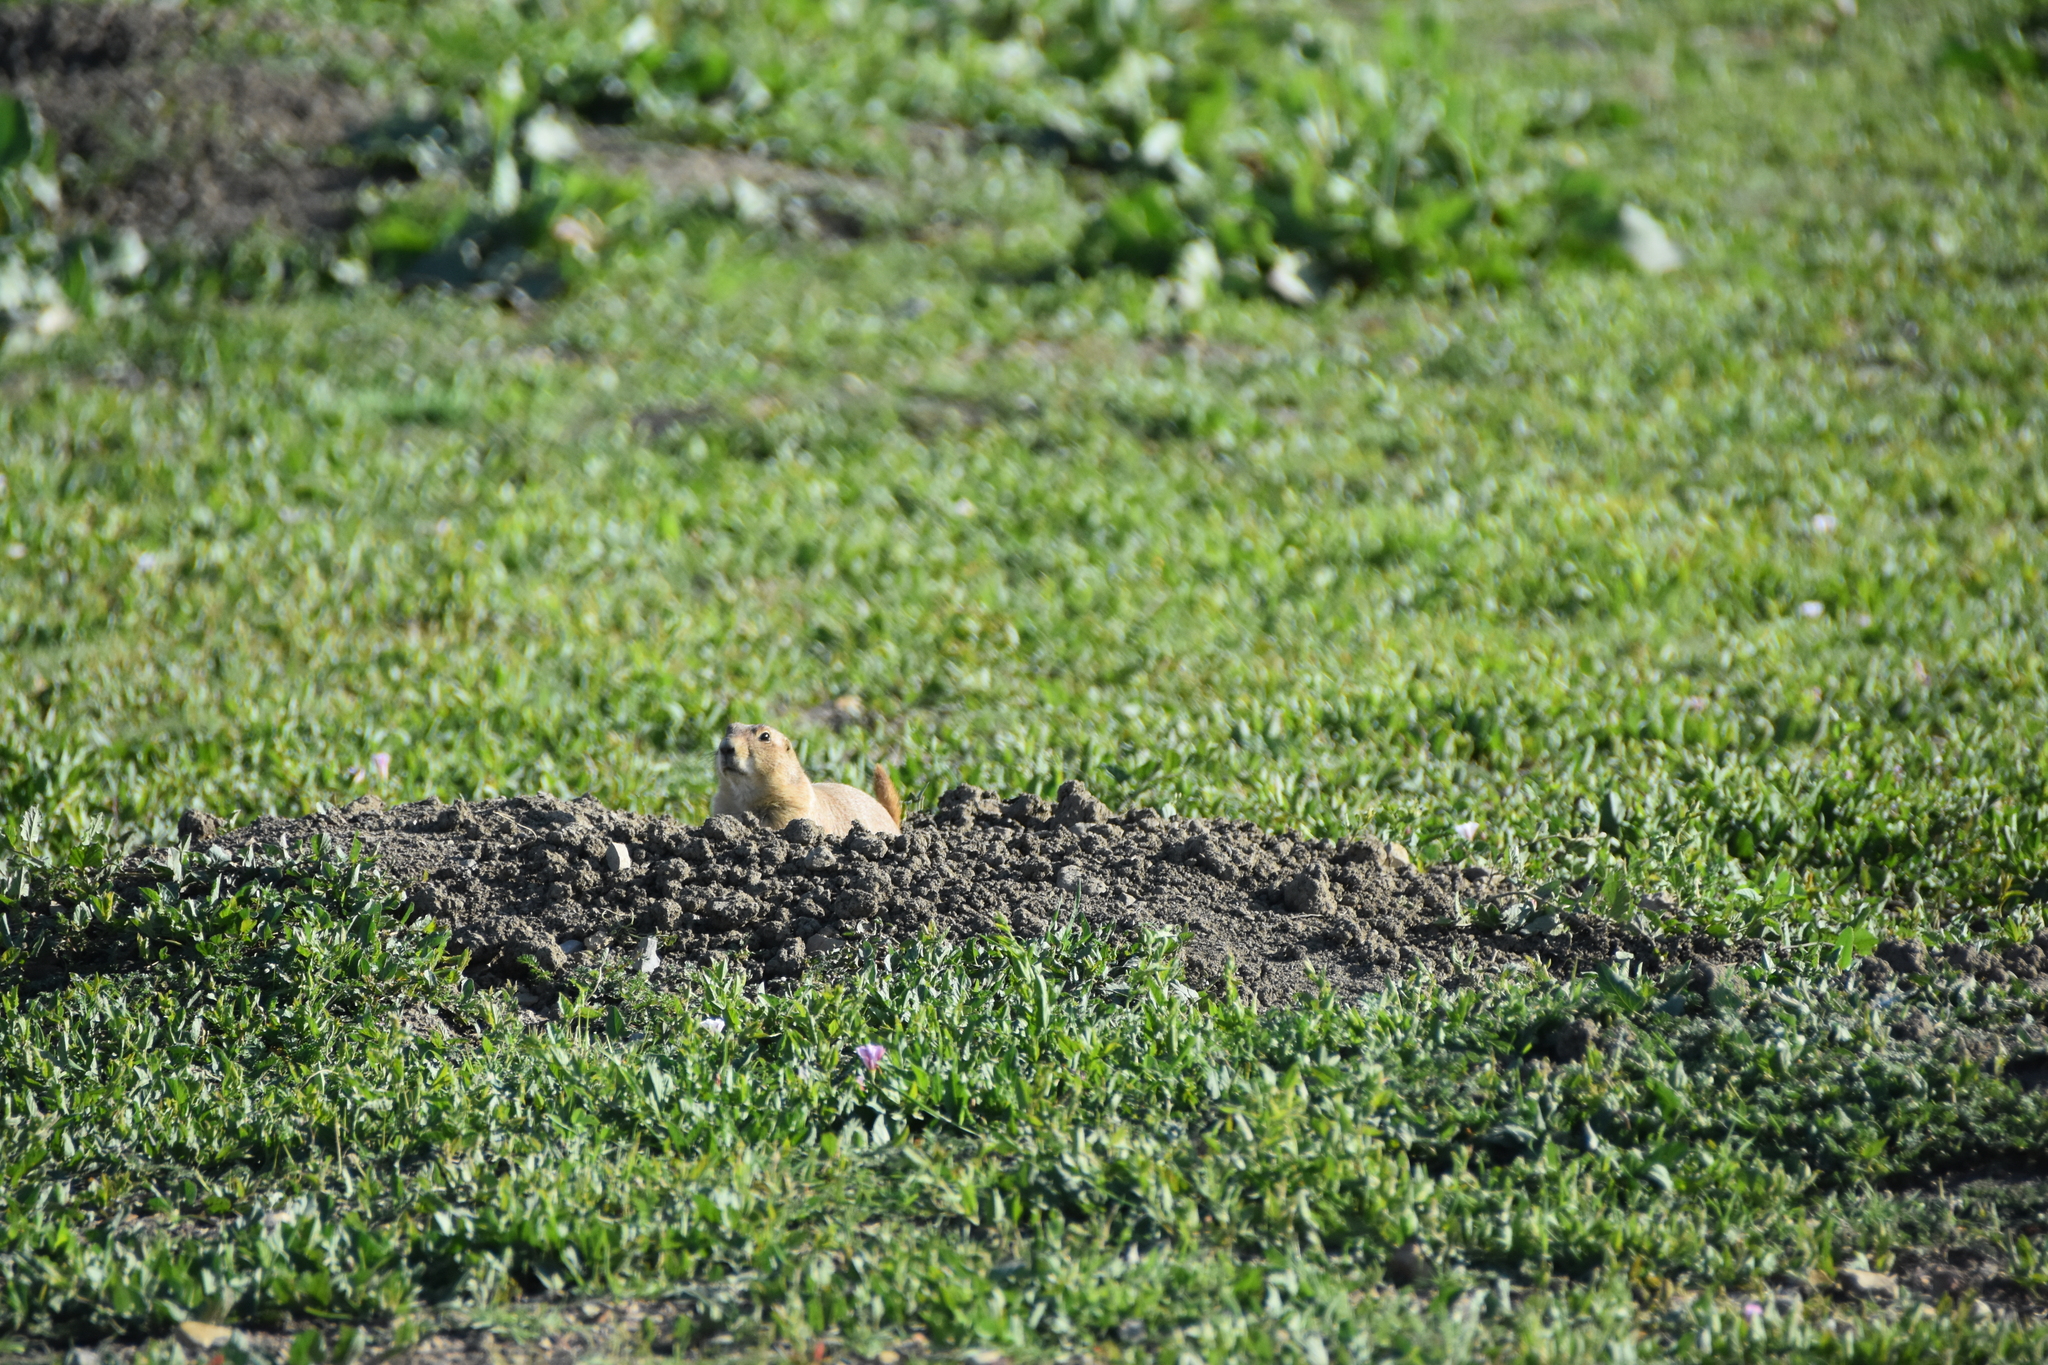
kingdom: Animalia
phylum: Chordata
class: Mammalia
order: Rodentia
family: Sciuridae
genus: Cynomys
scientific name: Cynomys ludovicianus
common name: Black-tailed prairie dog
